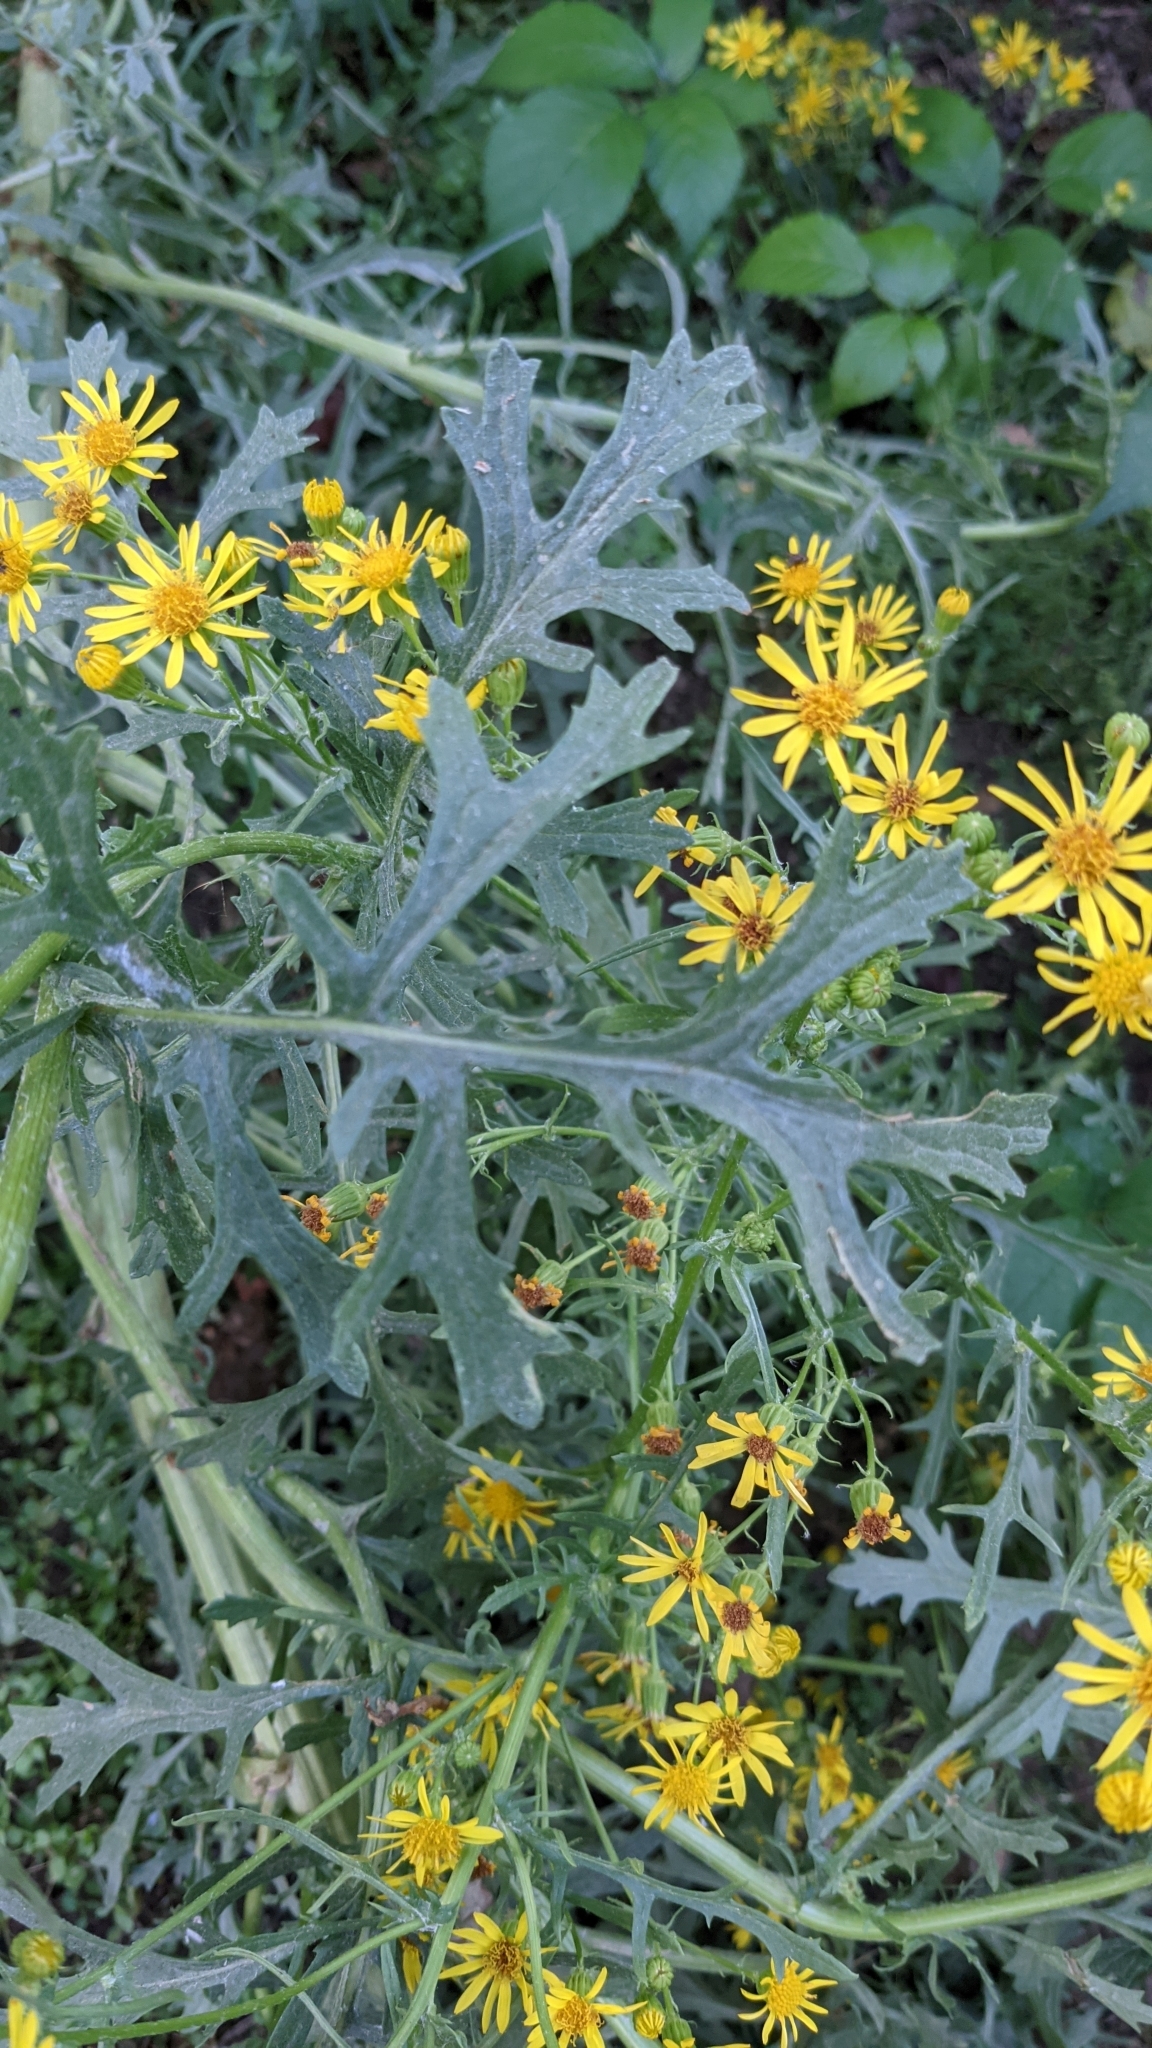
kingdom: Plantae
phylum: Tracheophyta
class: Magnoliopsida
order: Asterales
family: Asteraceae
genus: Jacobaea
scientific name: Jacobaea vulgaris
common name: Stinking willie
